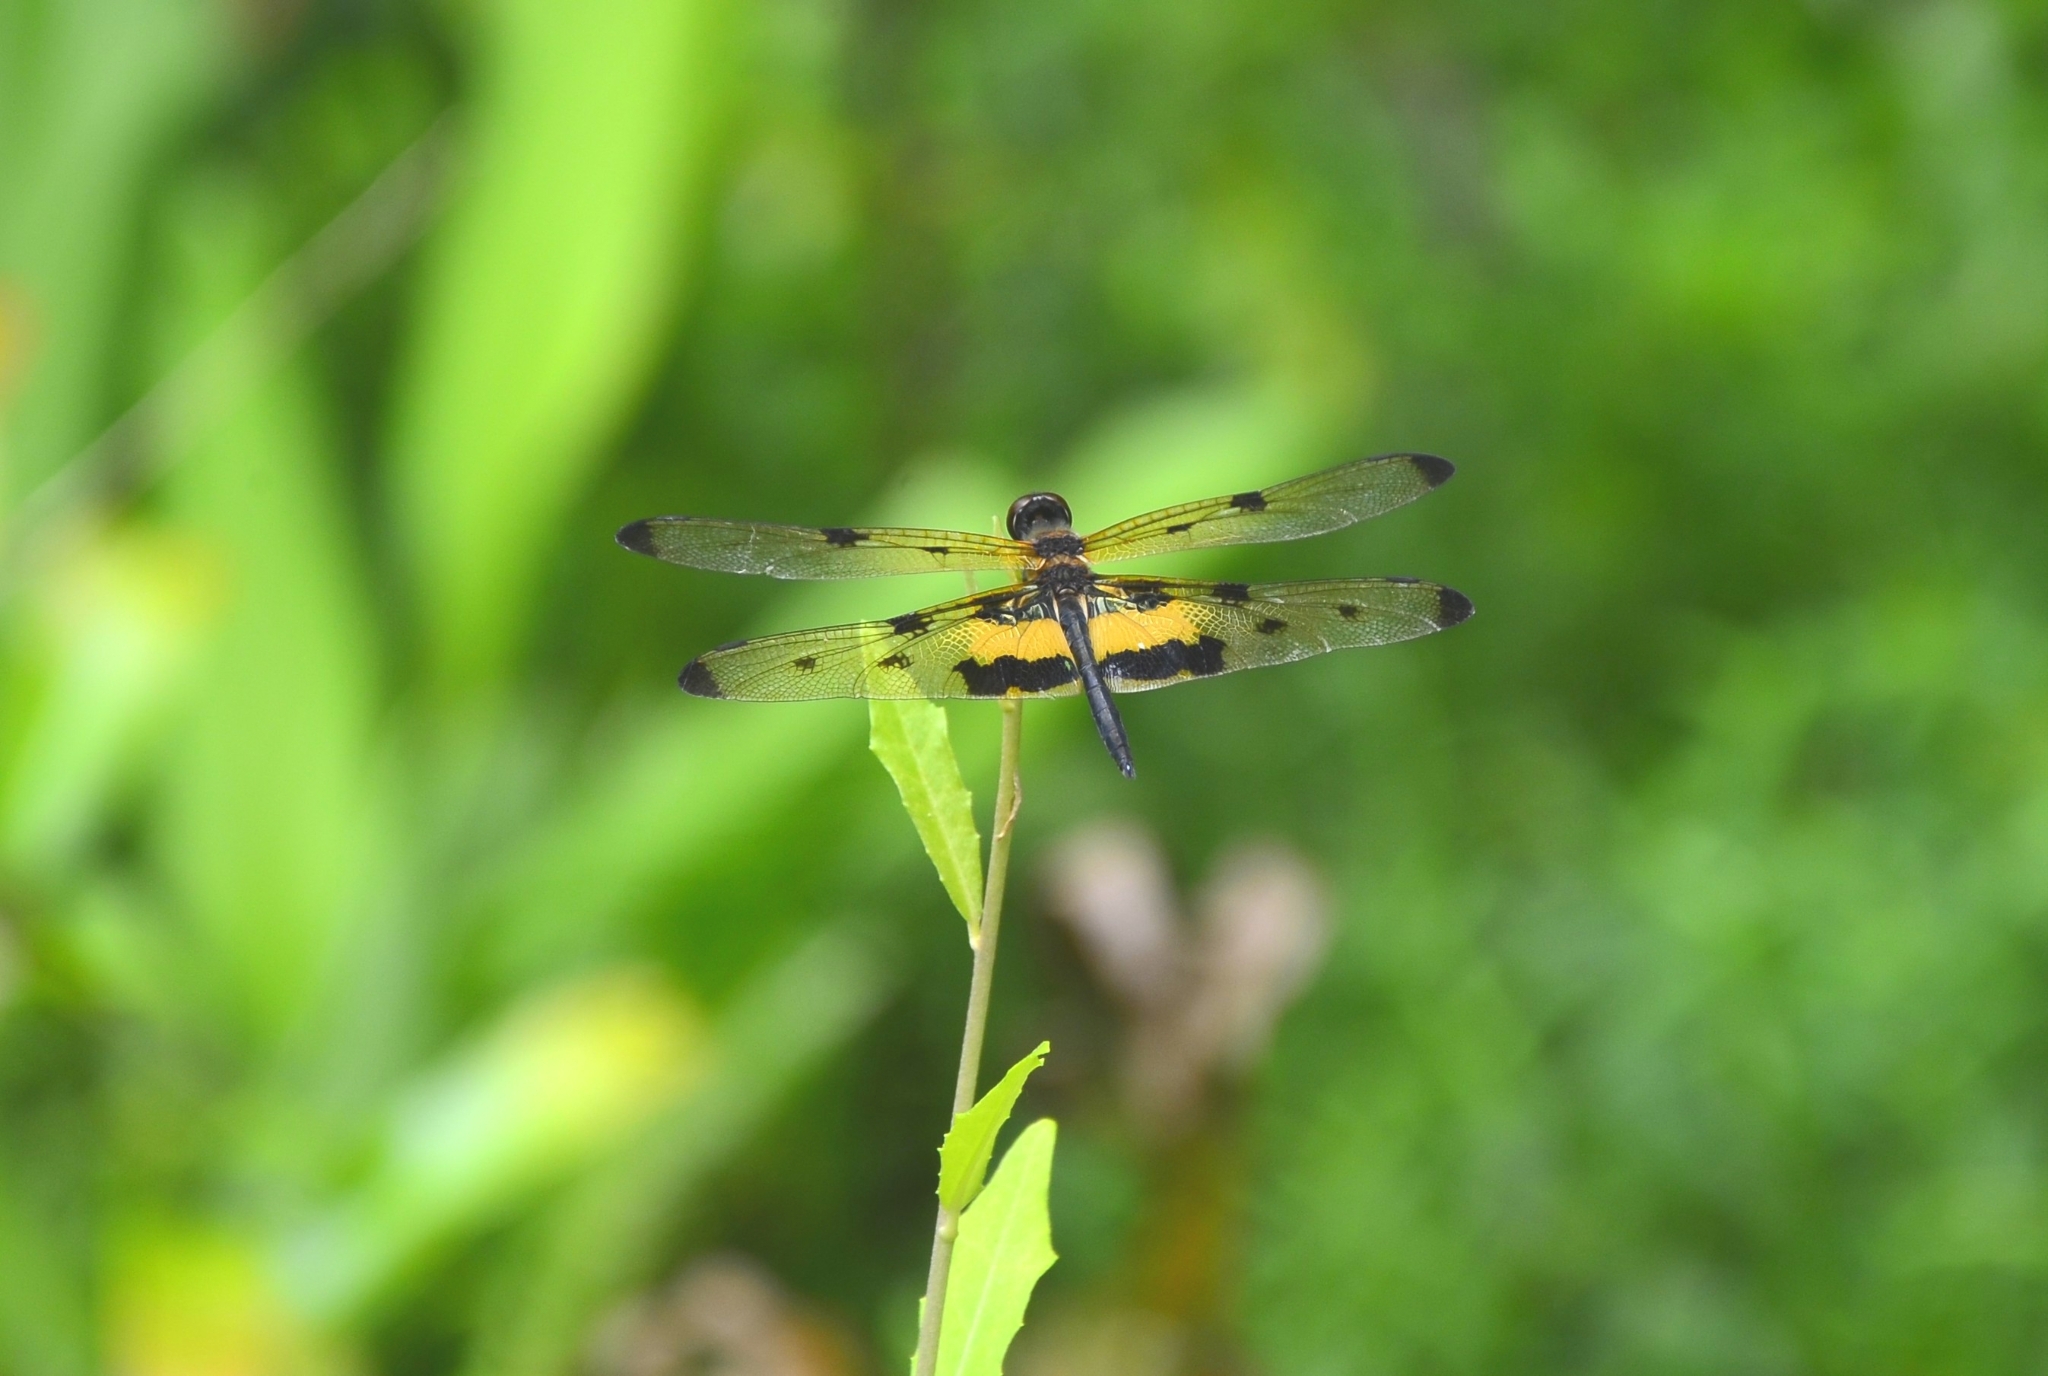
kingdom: Animalia
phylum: Arthropoda
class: Insecta
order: Odonata
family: Libellulidae
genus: Rhyothemis
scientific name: Rhyothemis variegata
